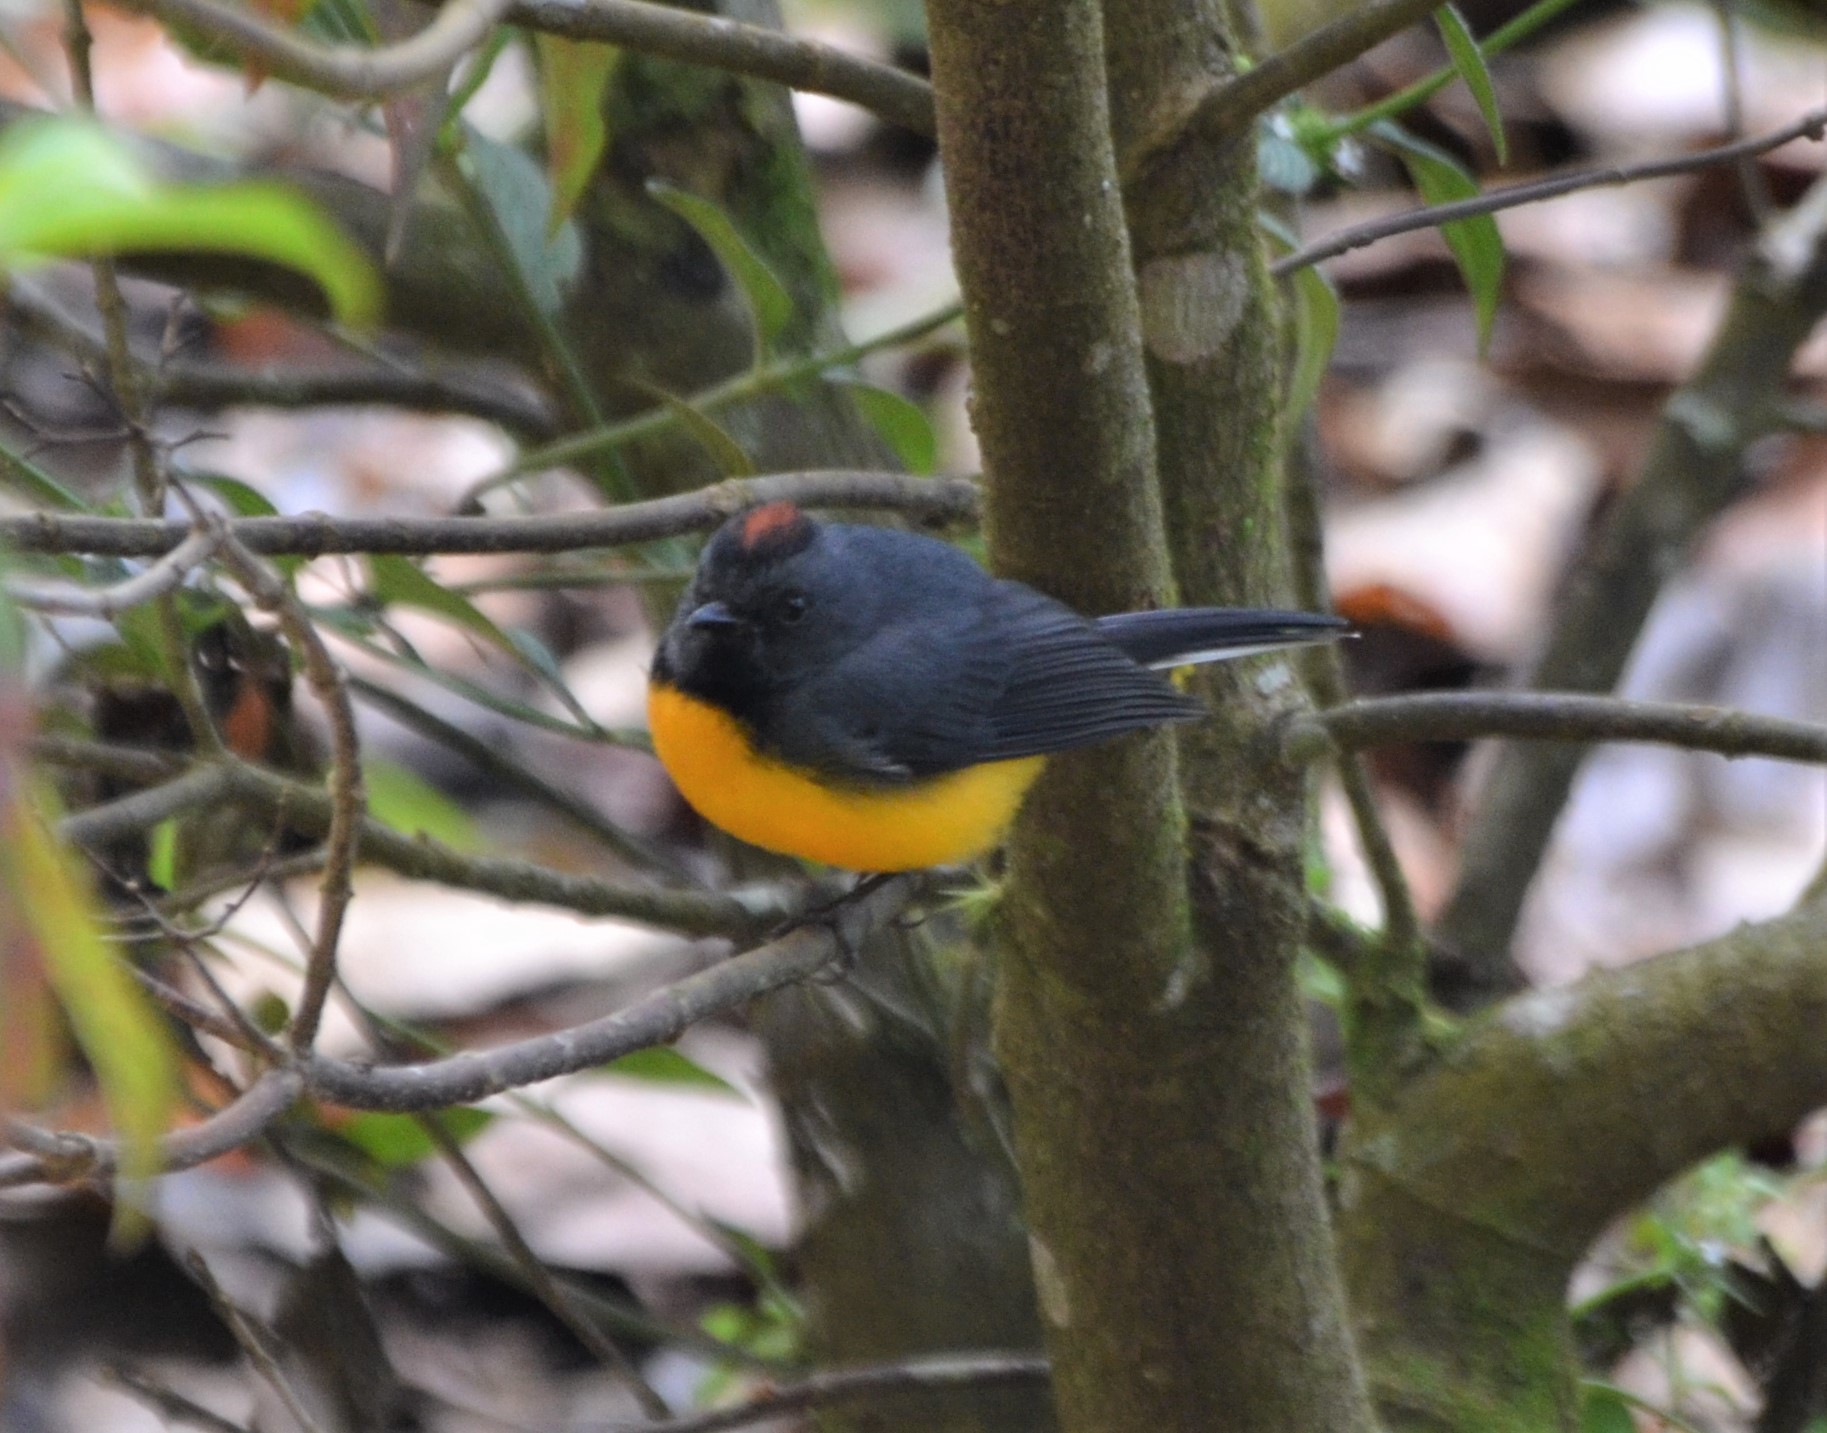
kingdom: Animalia
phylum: Chordata
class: Aves
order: Passeriformes
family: Parulidae
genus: Myioborus
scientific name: Myioborus miniatus
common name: Slate-throated redstart
